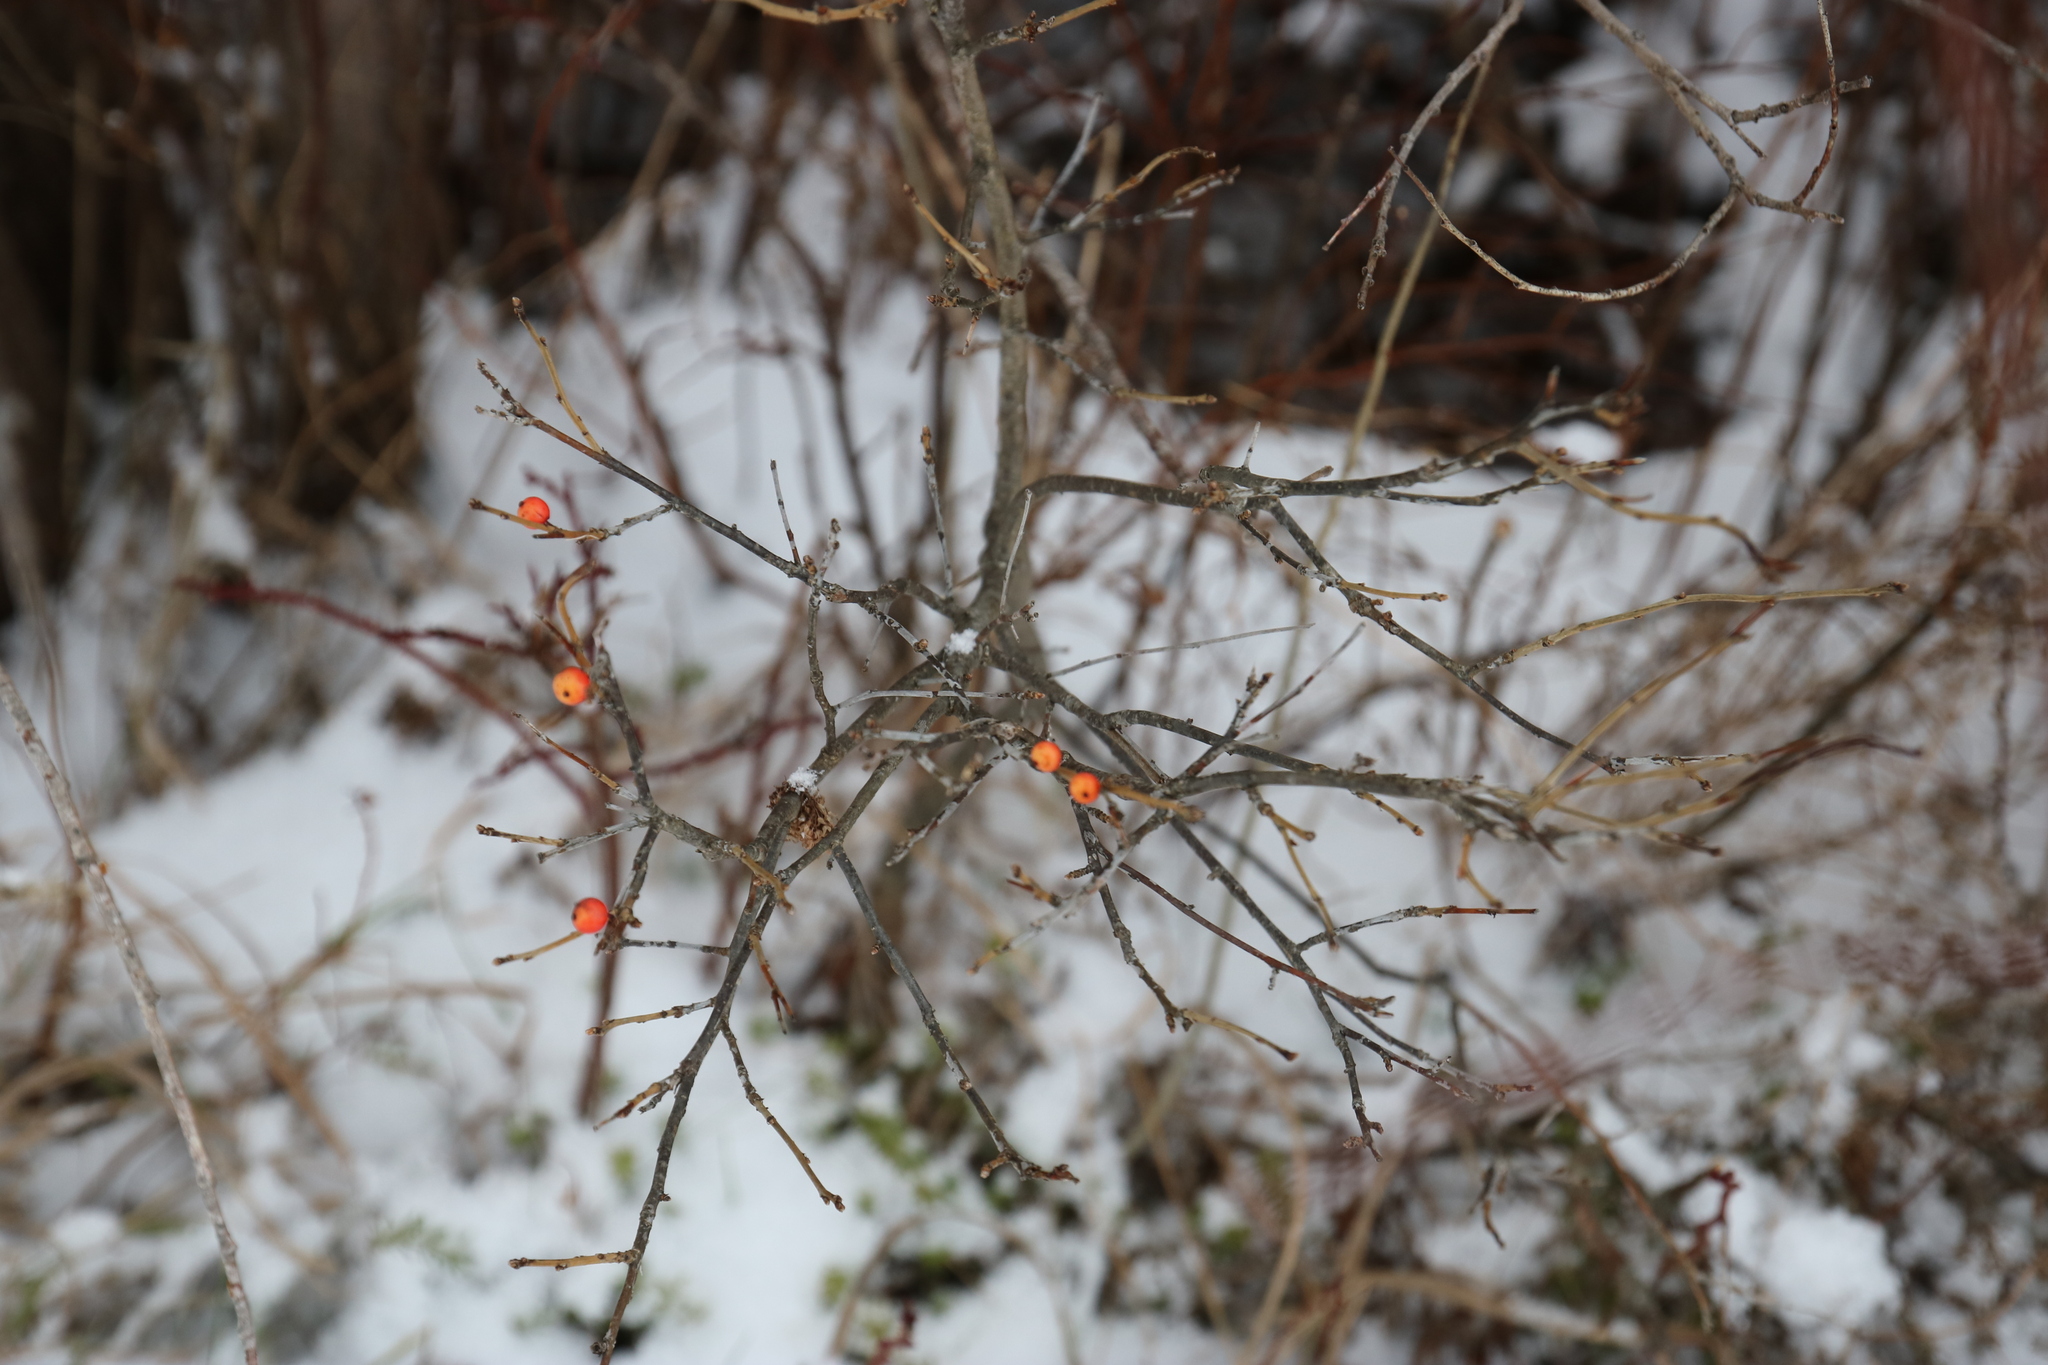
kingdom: Plantae
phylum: Tracheophyta
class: Magnoliopsida
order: Aquifoliales
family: Aquifoliaceae
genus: Ilex
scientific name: Ilex verticillata
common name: Virginia winterberry
